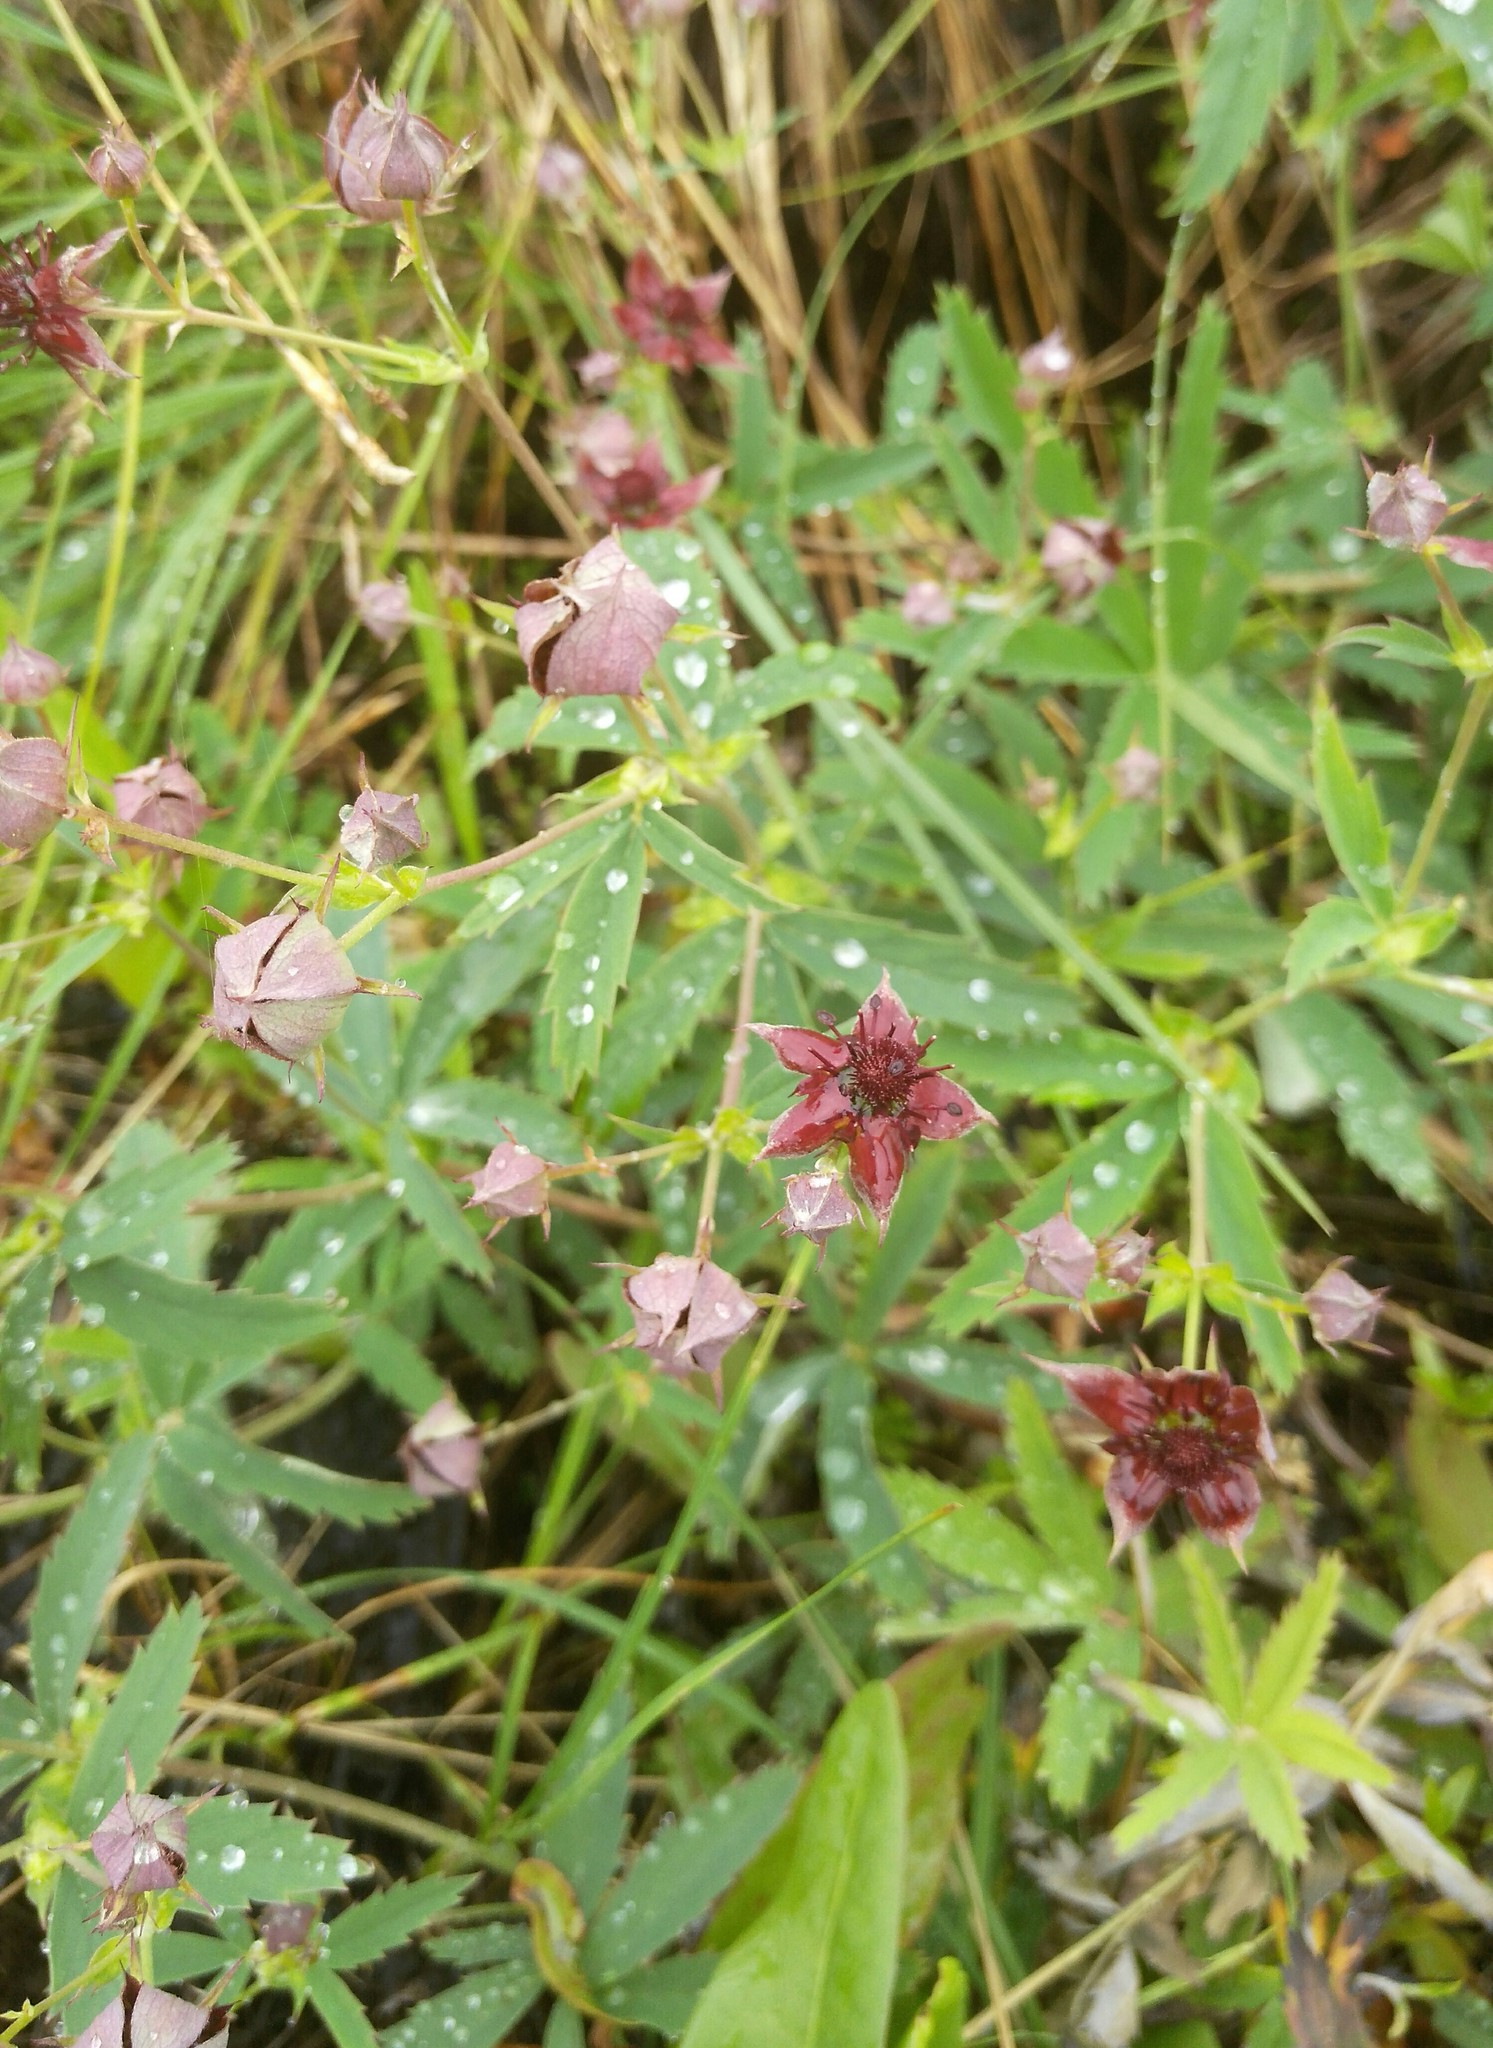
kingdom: Plantae
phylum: Tracheophyta
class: Magnoliopsida
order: Rosales
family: Rosaceae
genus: Comarum
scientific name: Comarum palustre
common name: Marsh cinquefoil
